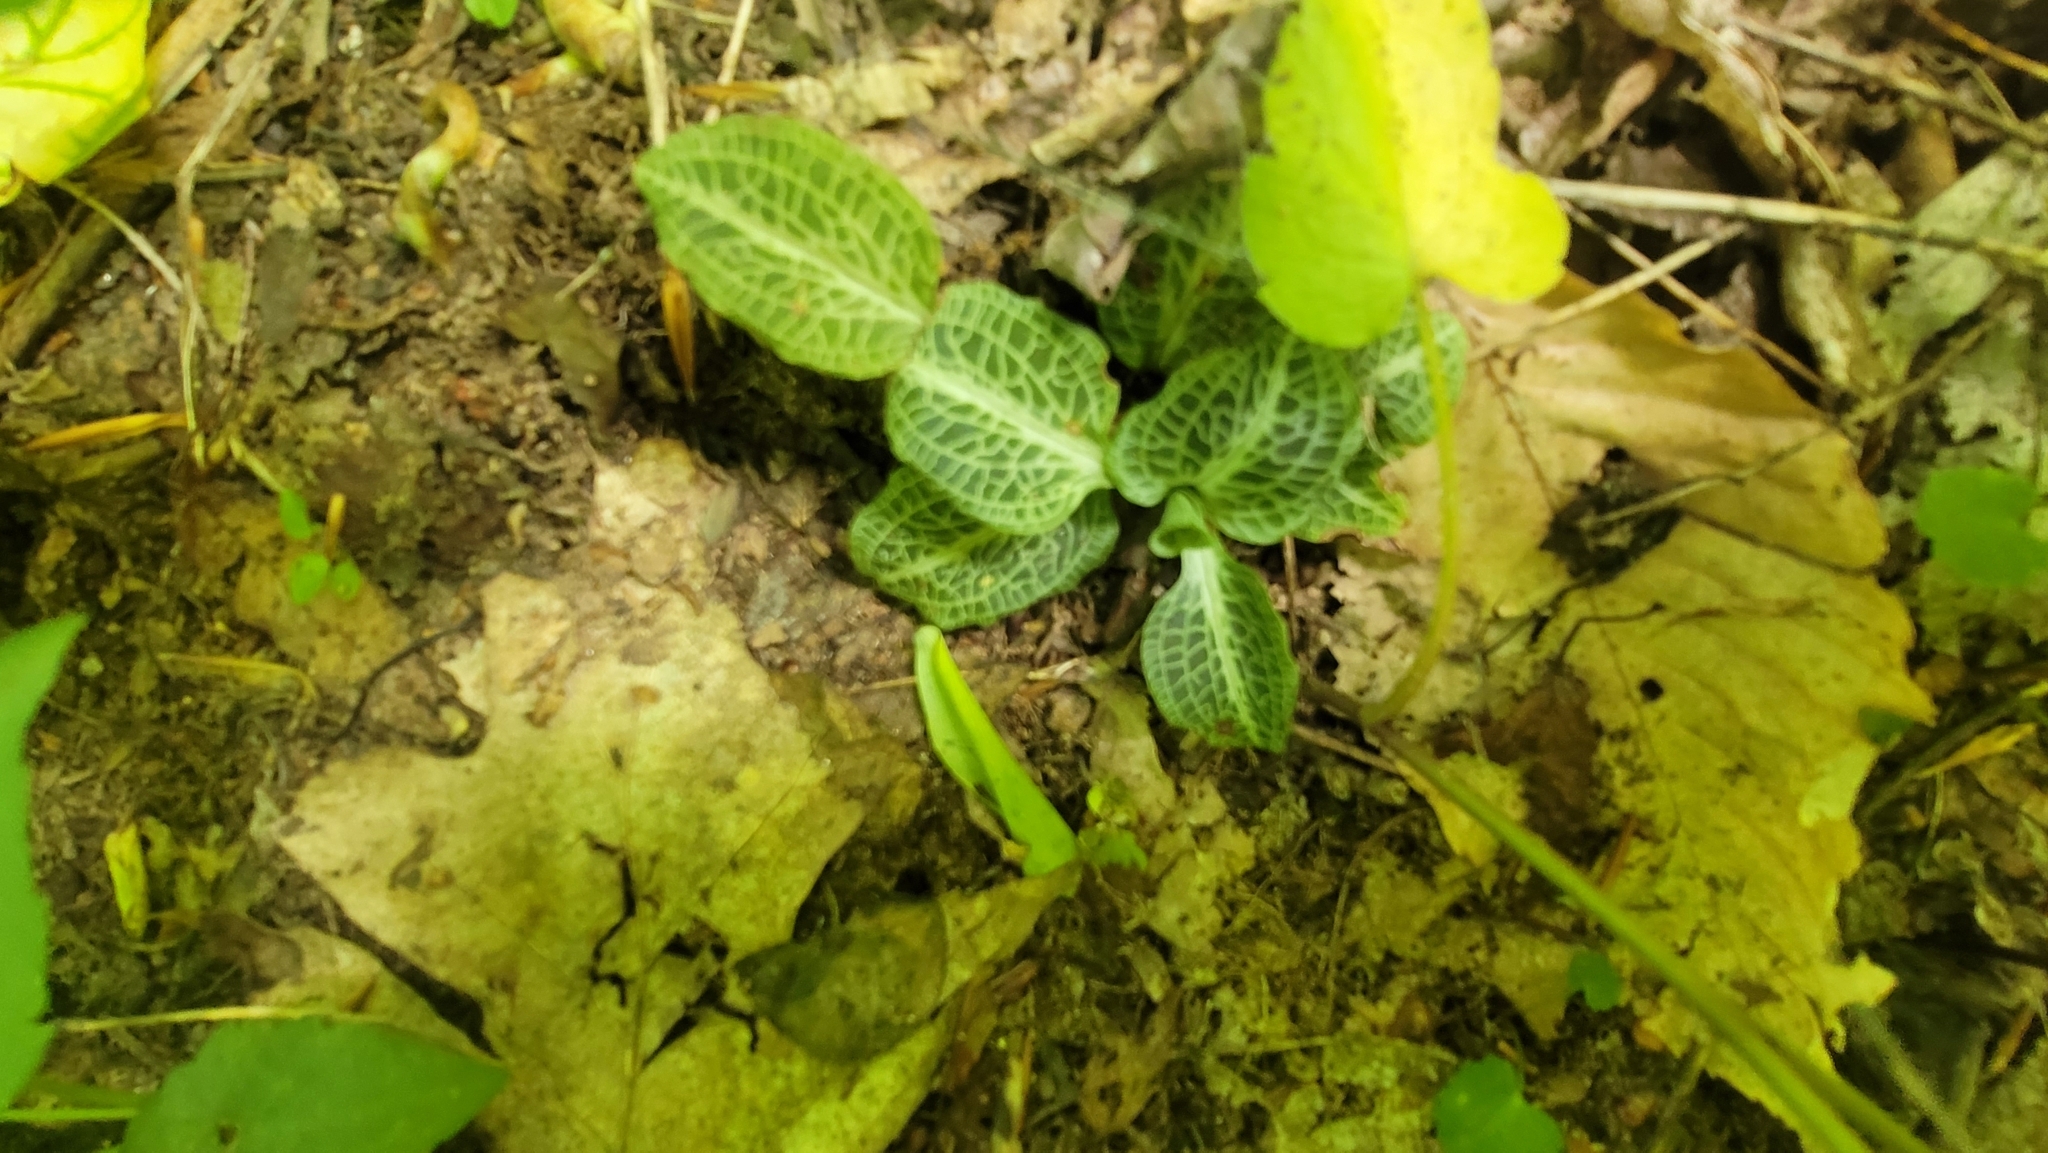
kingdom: Plantae
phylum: Tracheophyta
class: Liliopsida
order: Asparagales
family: Orchidaceae
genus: Goodyera
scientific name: Goodyera pubescens
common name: Downy rattlesnake-plantain
